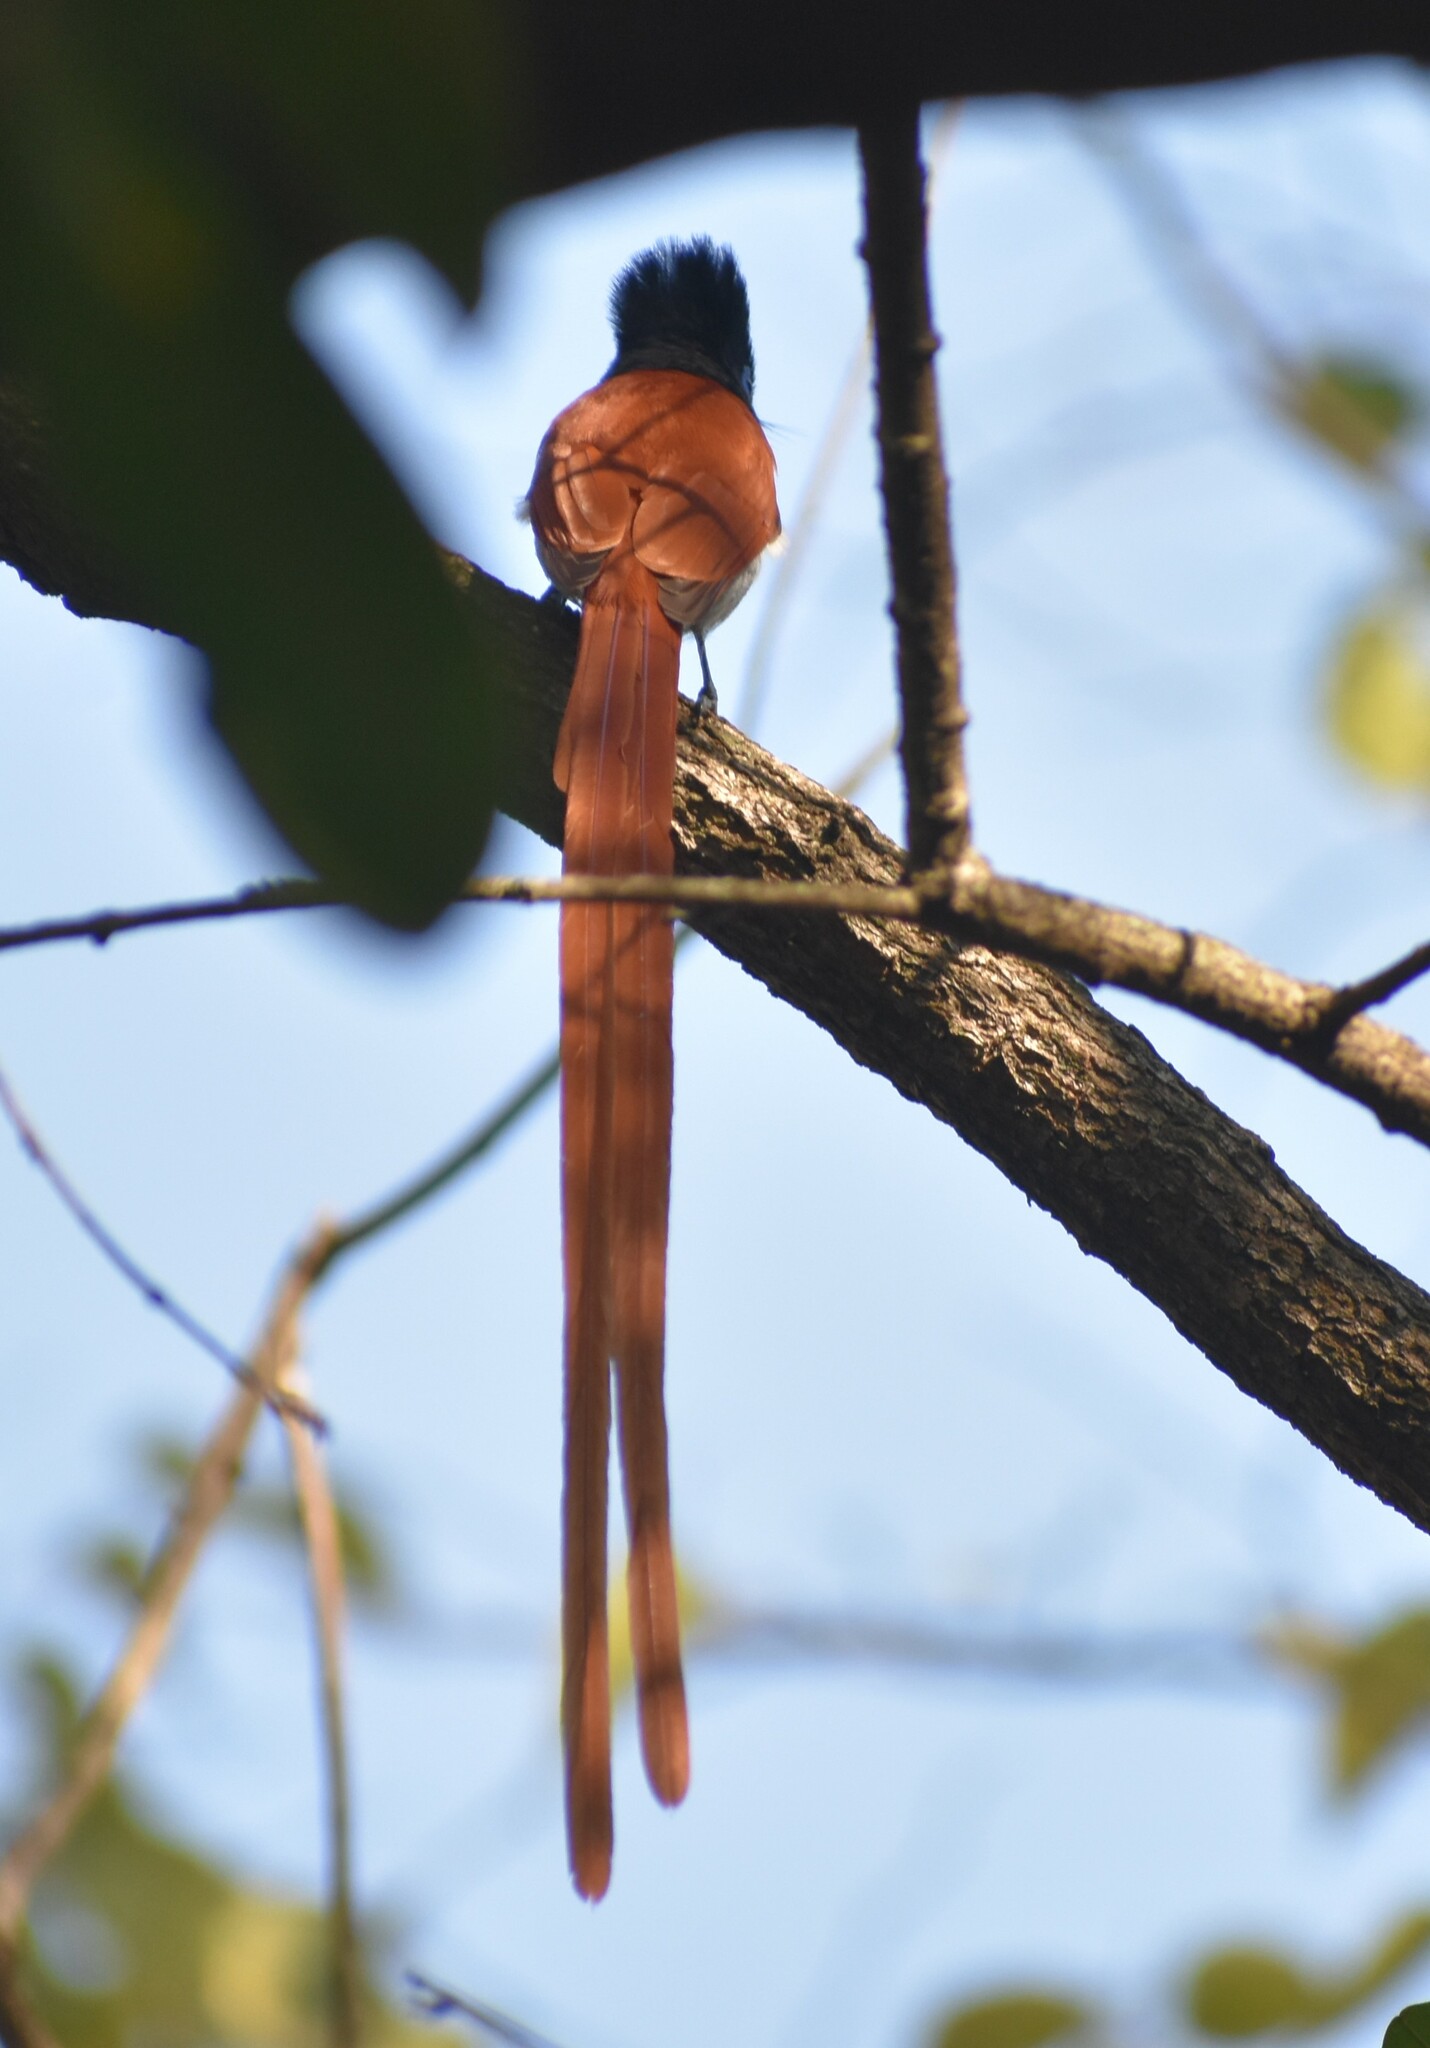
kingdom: Animalia
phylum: Chordata
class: Aves
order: Passeriformes
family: Monarchidae
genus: Terpsiphone
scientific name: Terpsiphone viridis
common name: African paradise flycatcher
